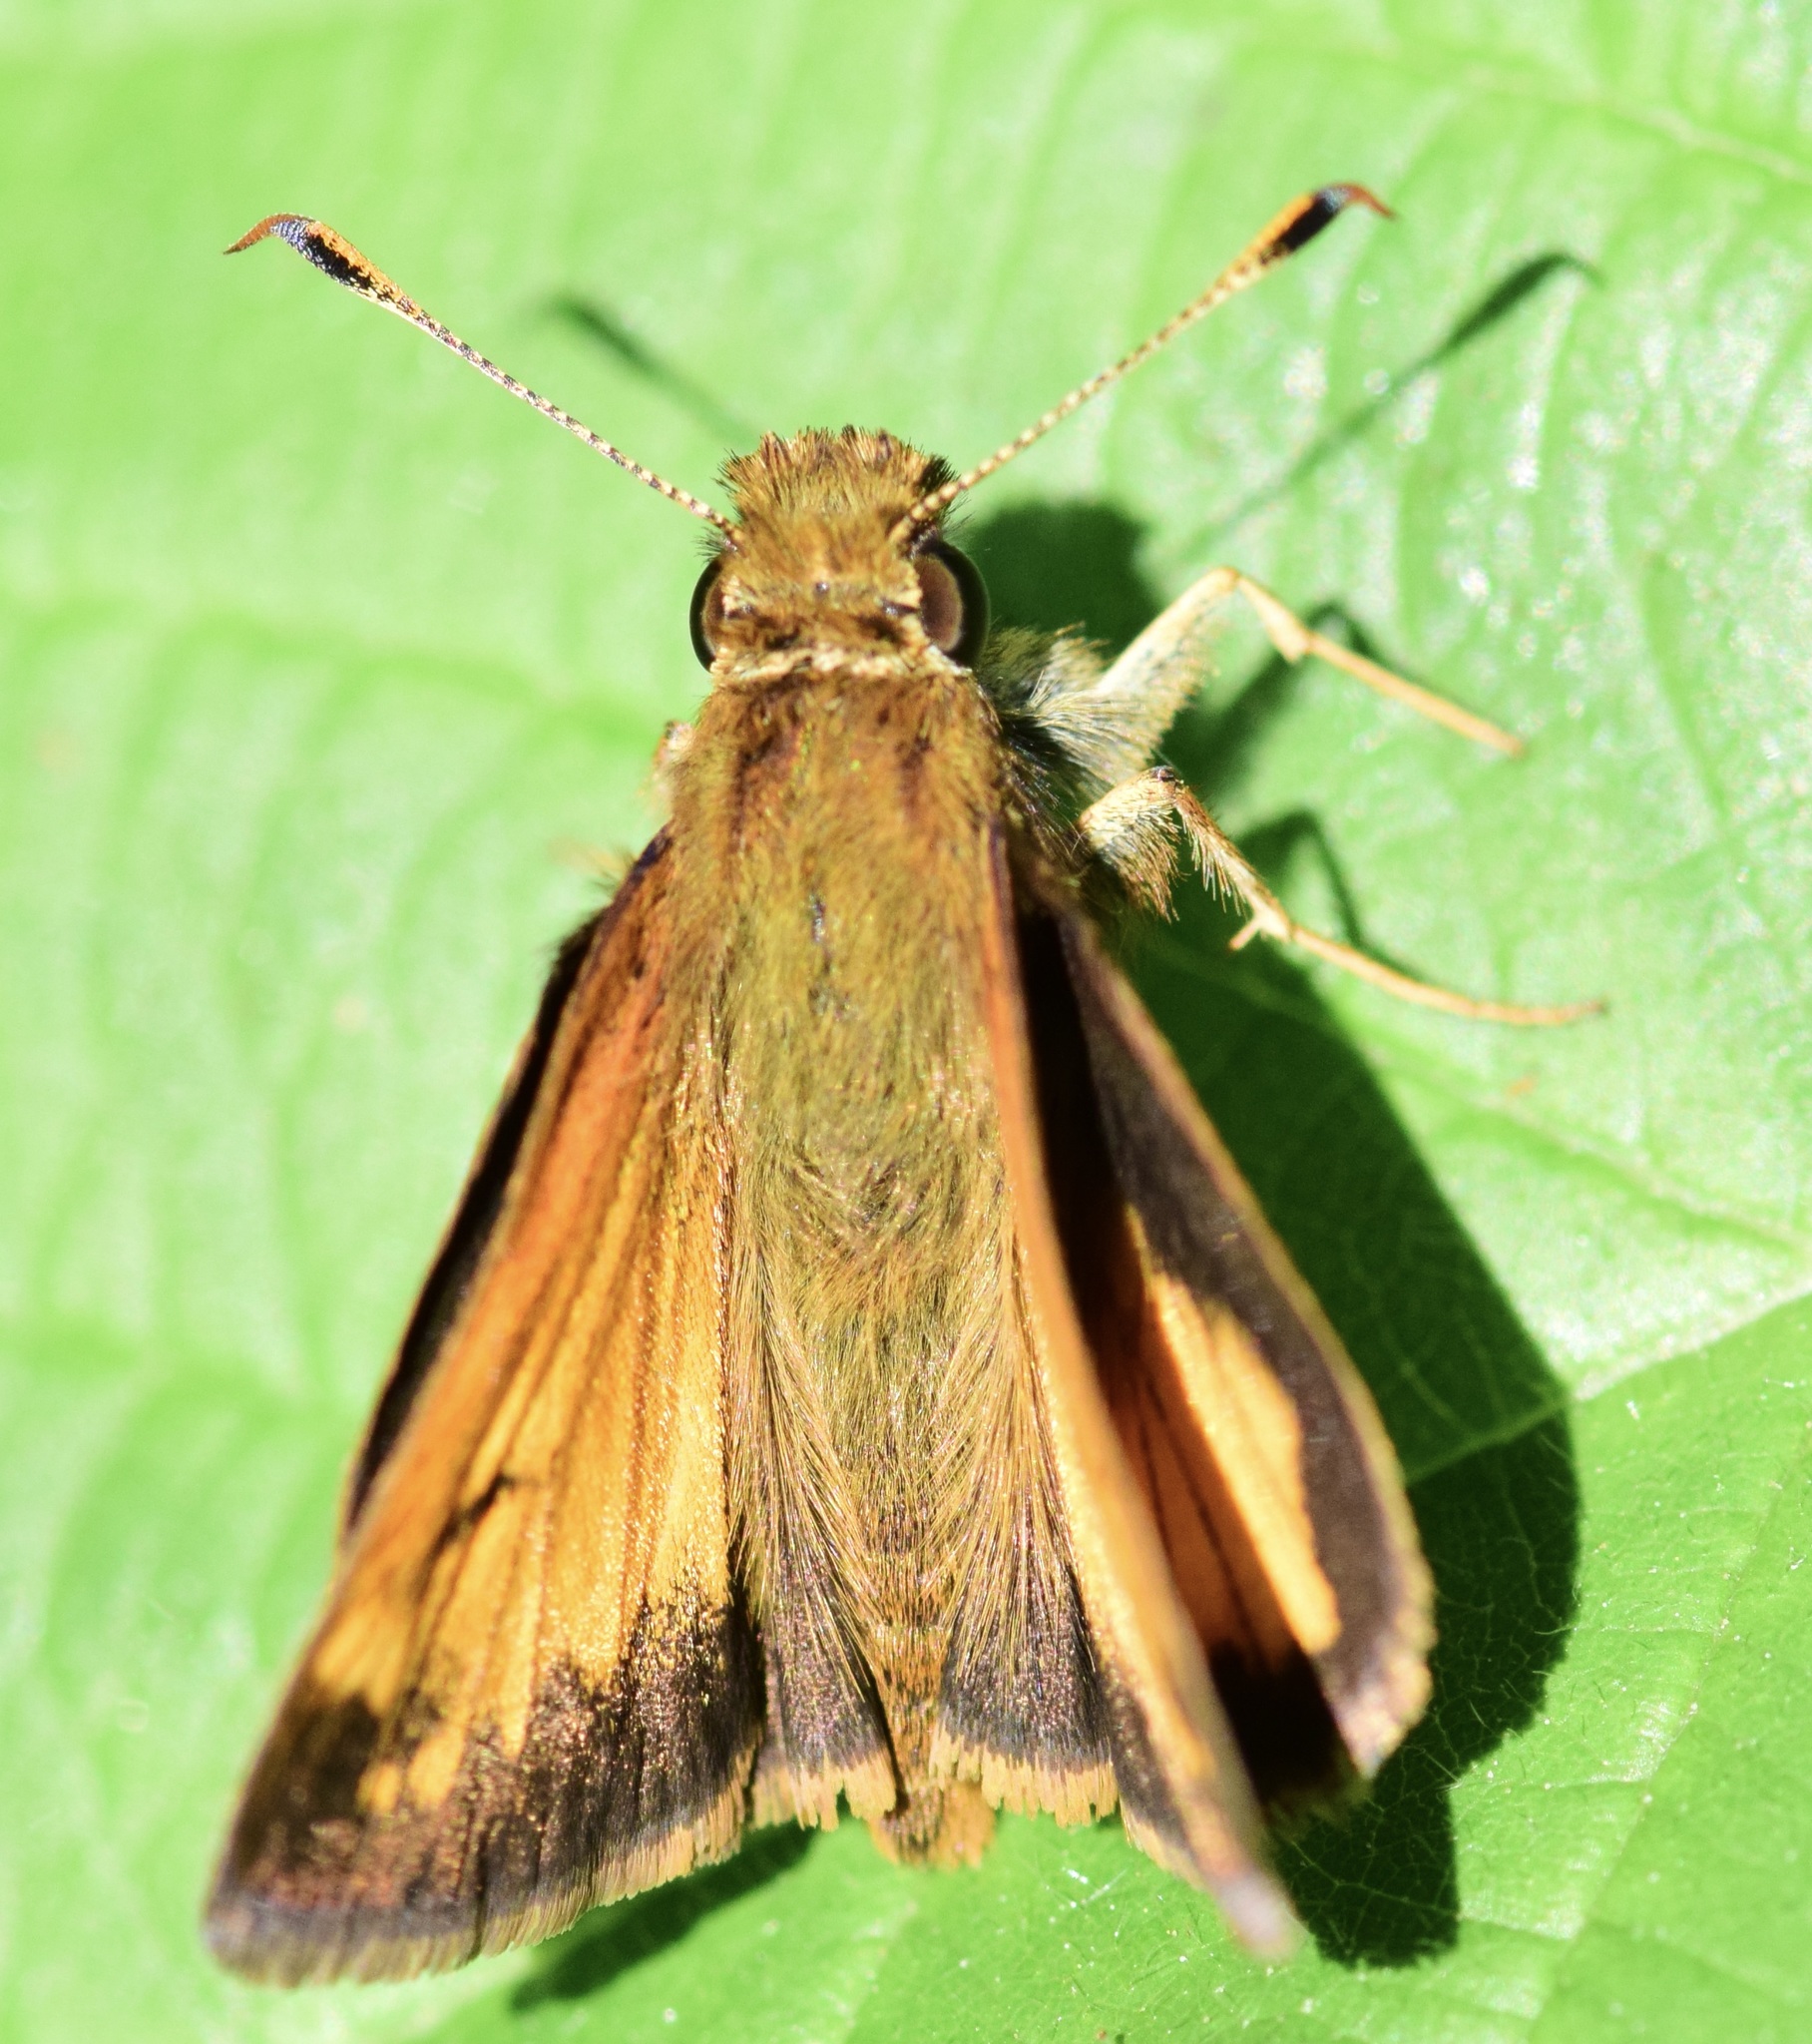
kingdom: Animalia
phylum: Arthropoda
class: Insecta
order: Lepidoptera
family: Hesperiidae
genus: Lon
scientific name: Lon hobomok
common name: Hobomok skipper
